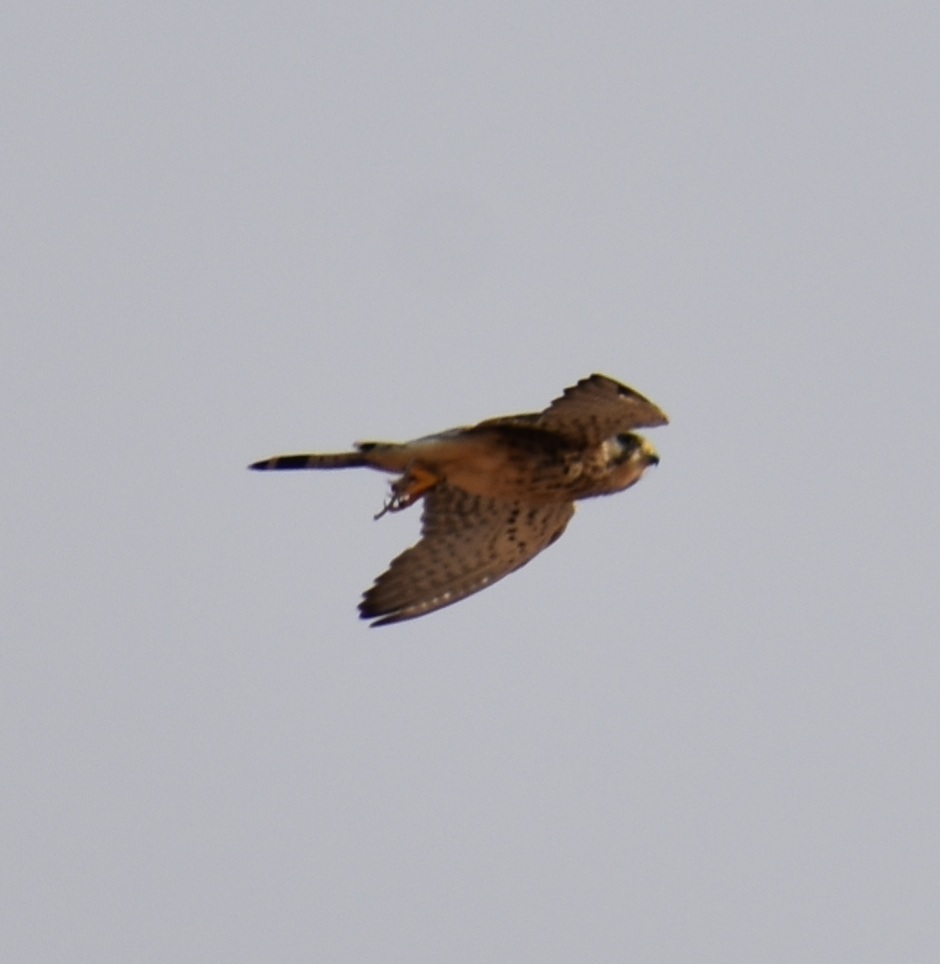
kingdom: Animalia
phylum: Chordata
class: Aves
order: Falconiformes
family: Falconidae
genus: Falco
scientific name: Falco tinnunculus
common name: Common kestrel
